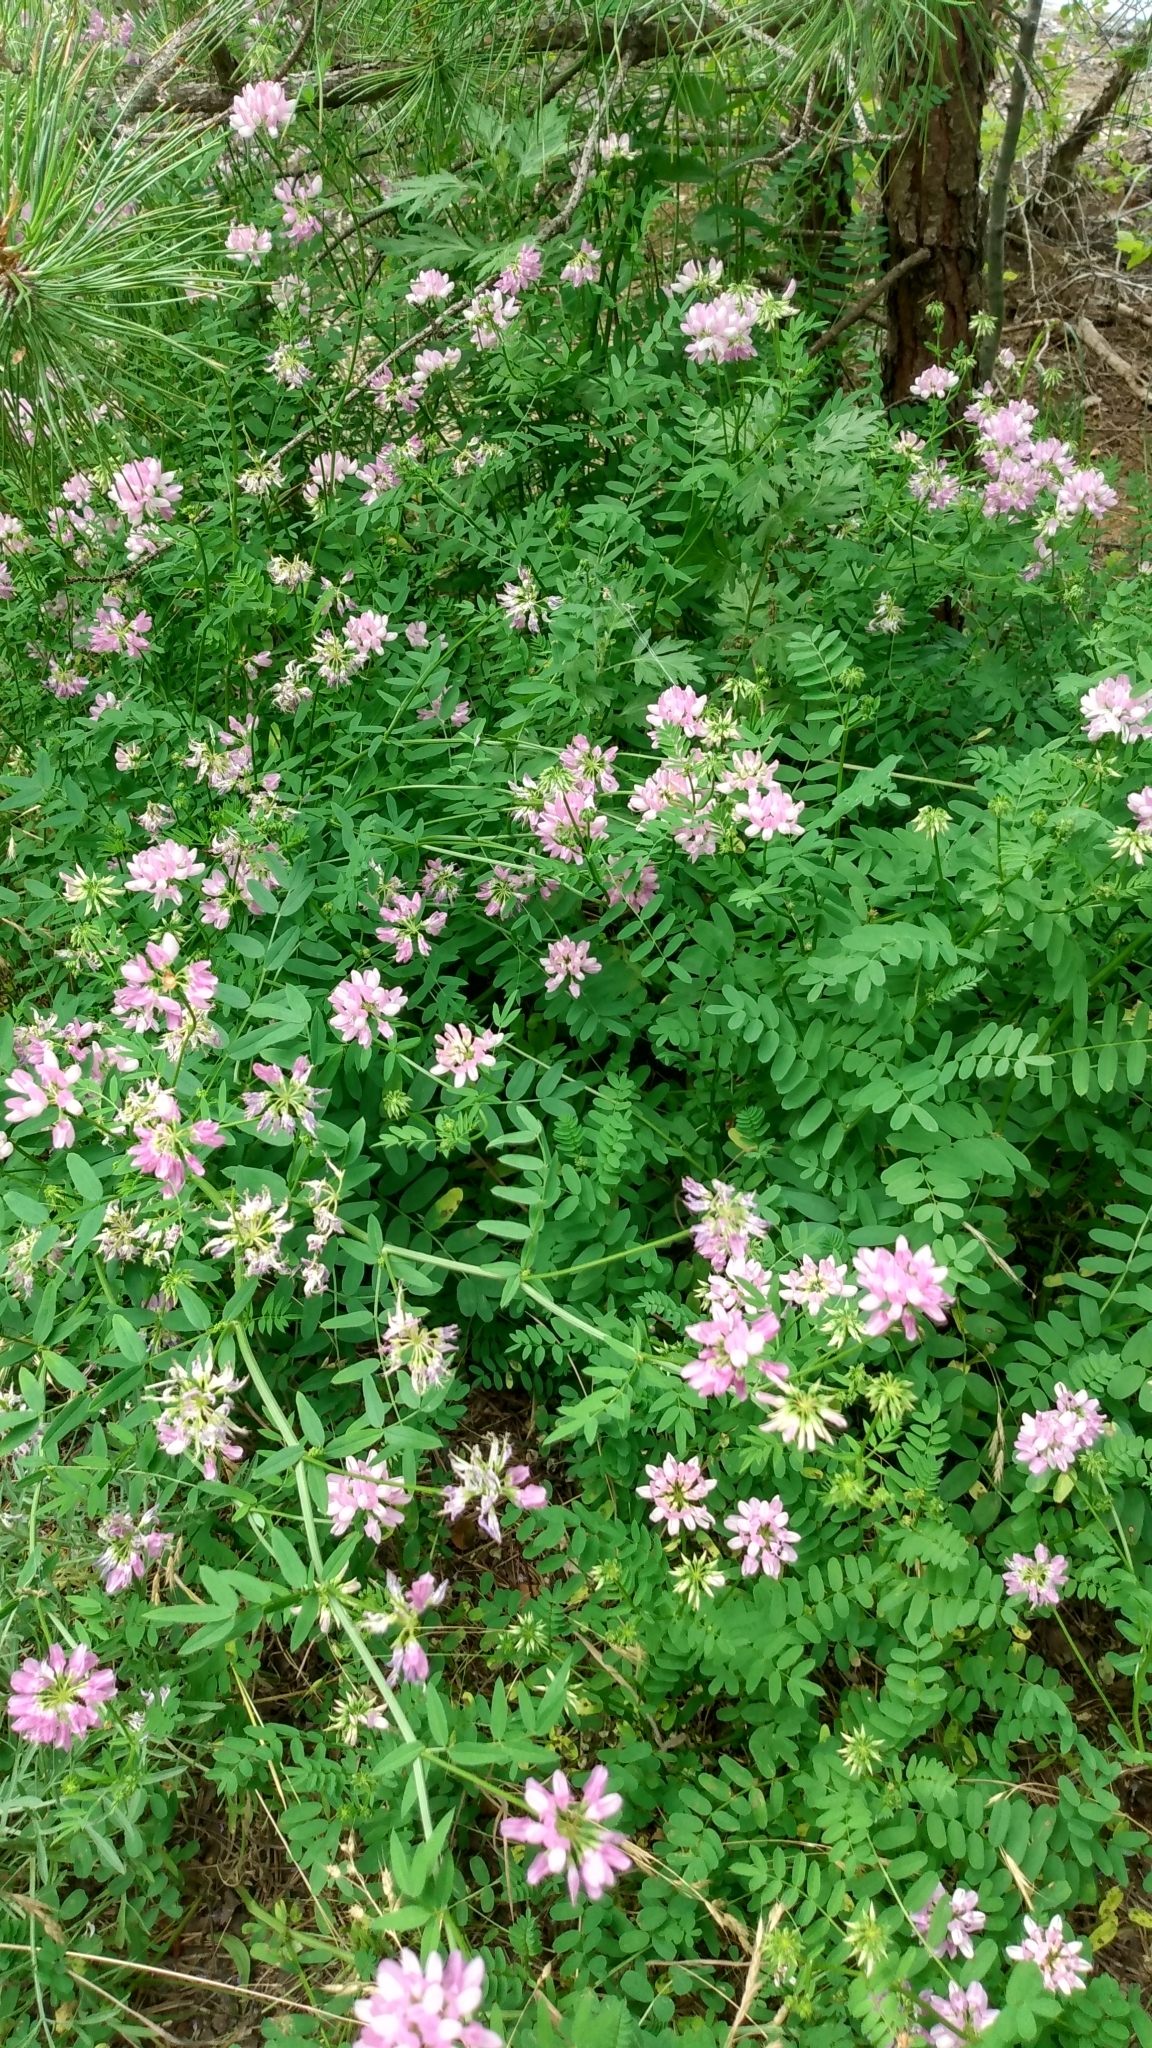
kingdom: Plantae
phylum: Tracheophyta
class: Magnoliopsida
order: Fabales
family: Fabaceae
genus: Coronilla
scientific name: Coronilla varia
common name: Crownvetch
